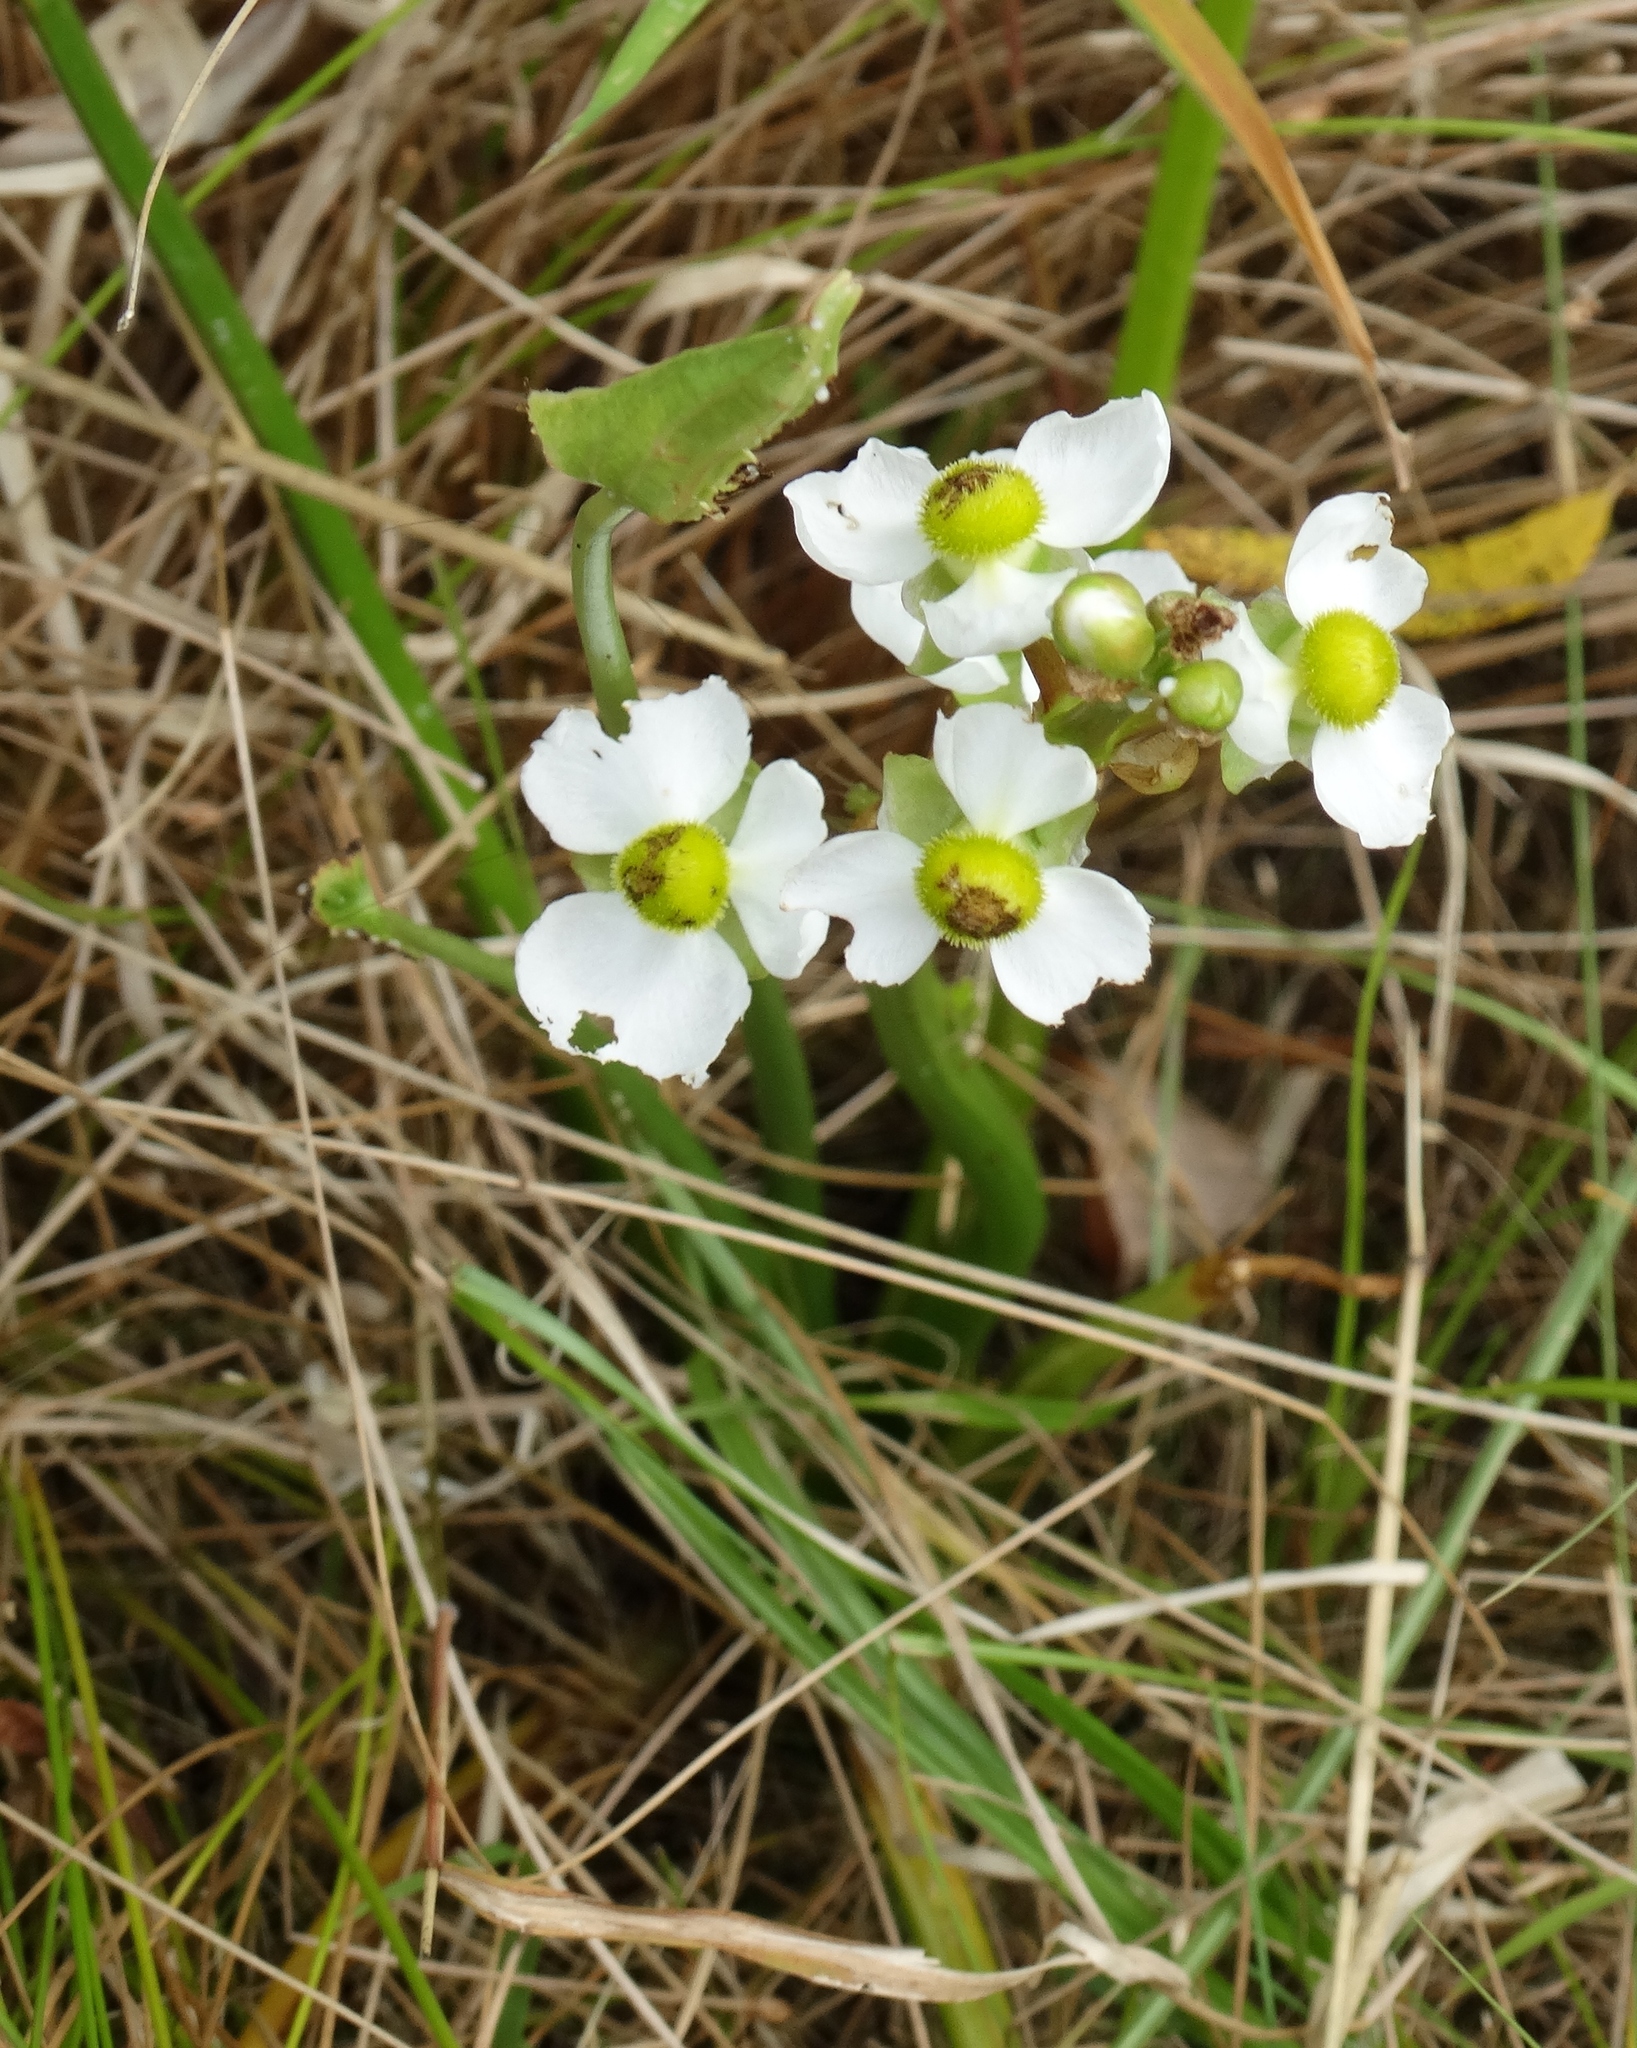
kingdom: Plantae
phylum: Tracheophyta
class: Liliopsida
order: Alismatales
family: Alismataceae
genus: Sagittaria
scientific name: Sagittaria latifolia
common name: Duck-potato
